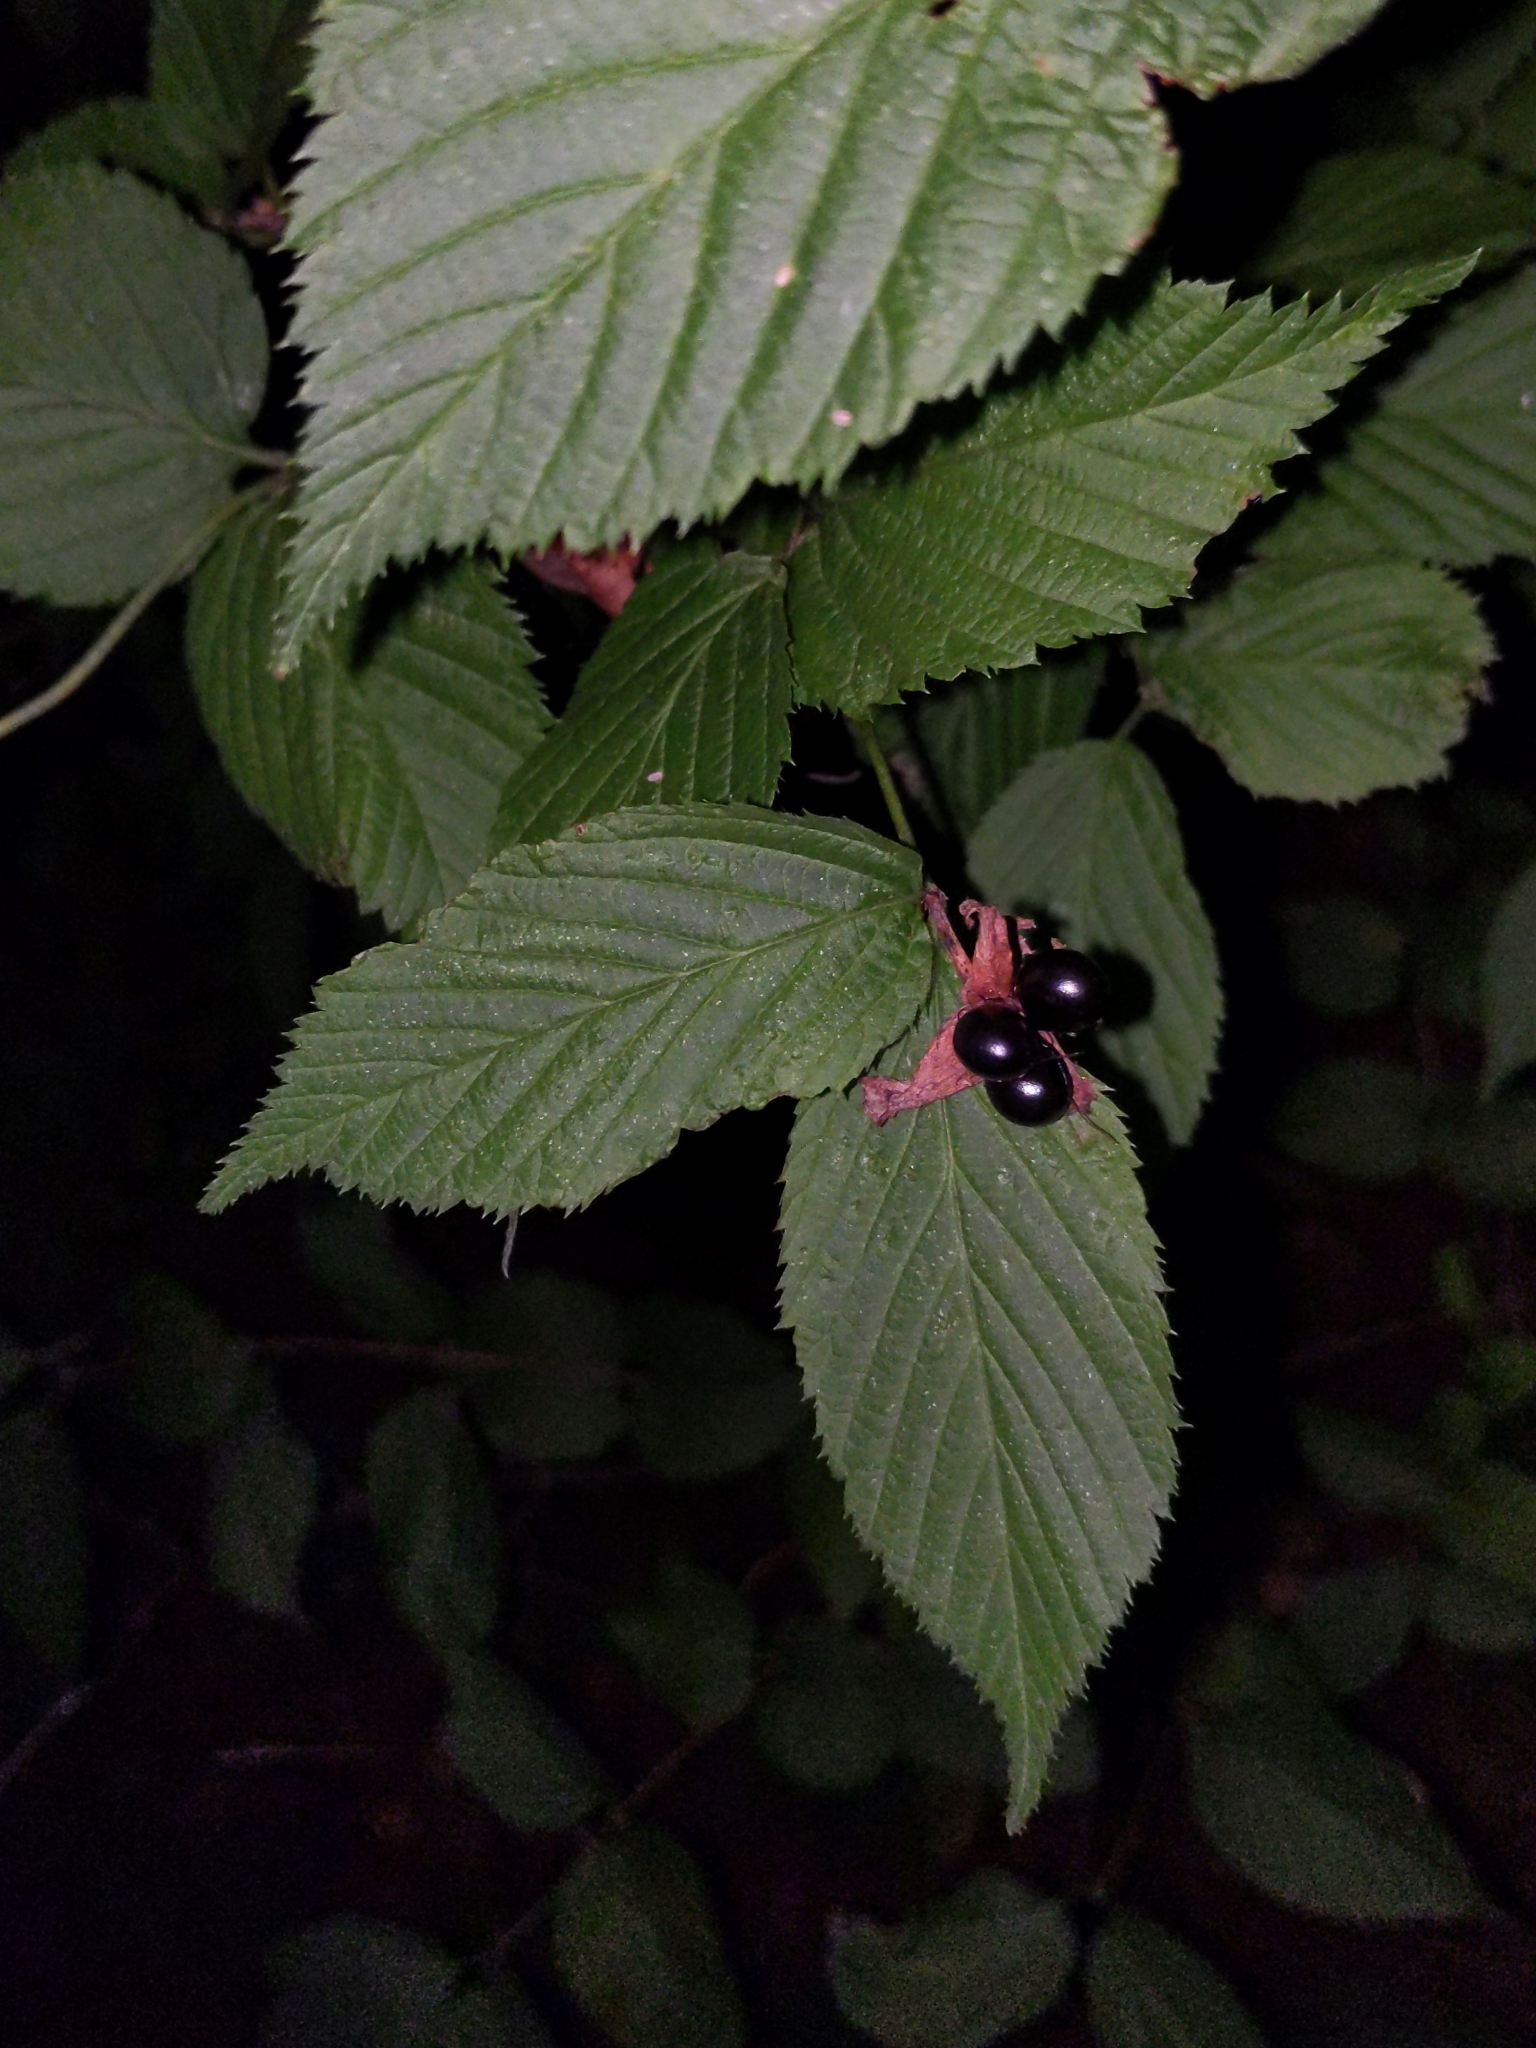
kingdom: Plantae
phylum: Tracheophyta
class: Magnoliopsida
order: Rosales
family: Rosaceae
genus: Rhodotypos
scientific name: Rhodotypos scandens
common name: Jetbead
